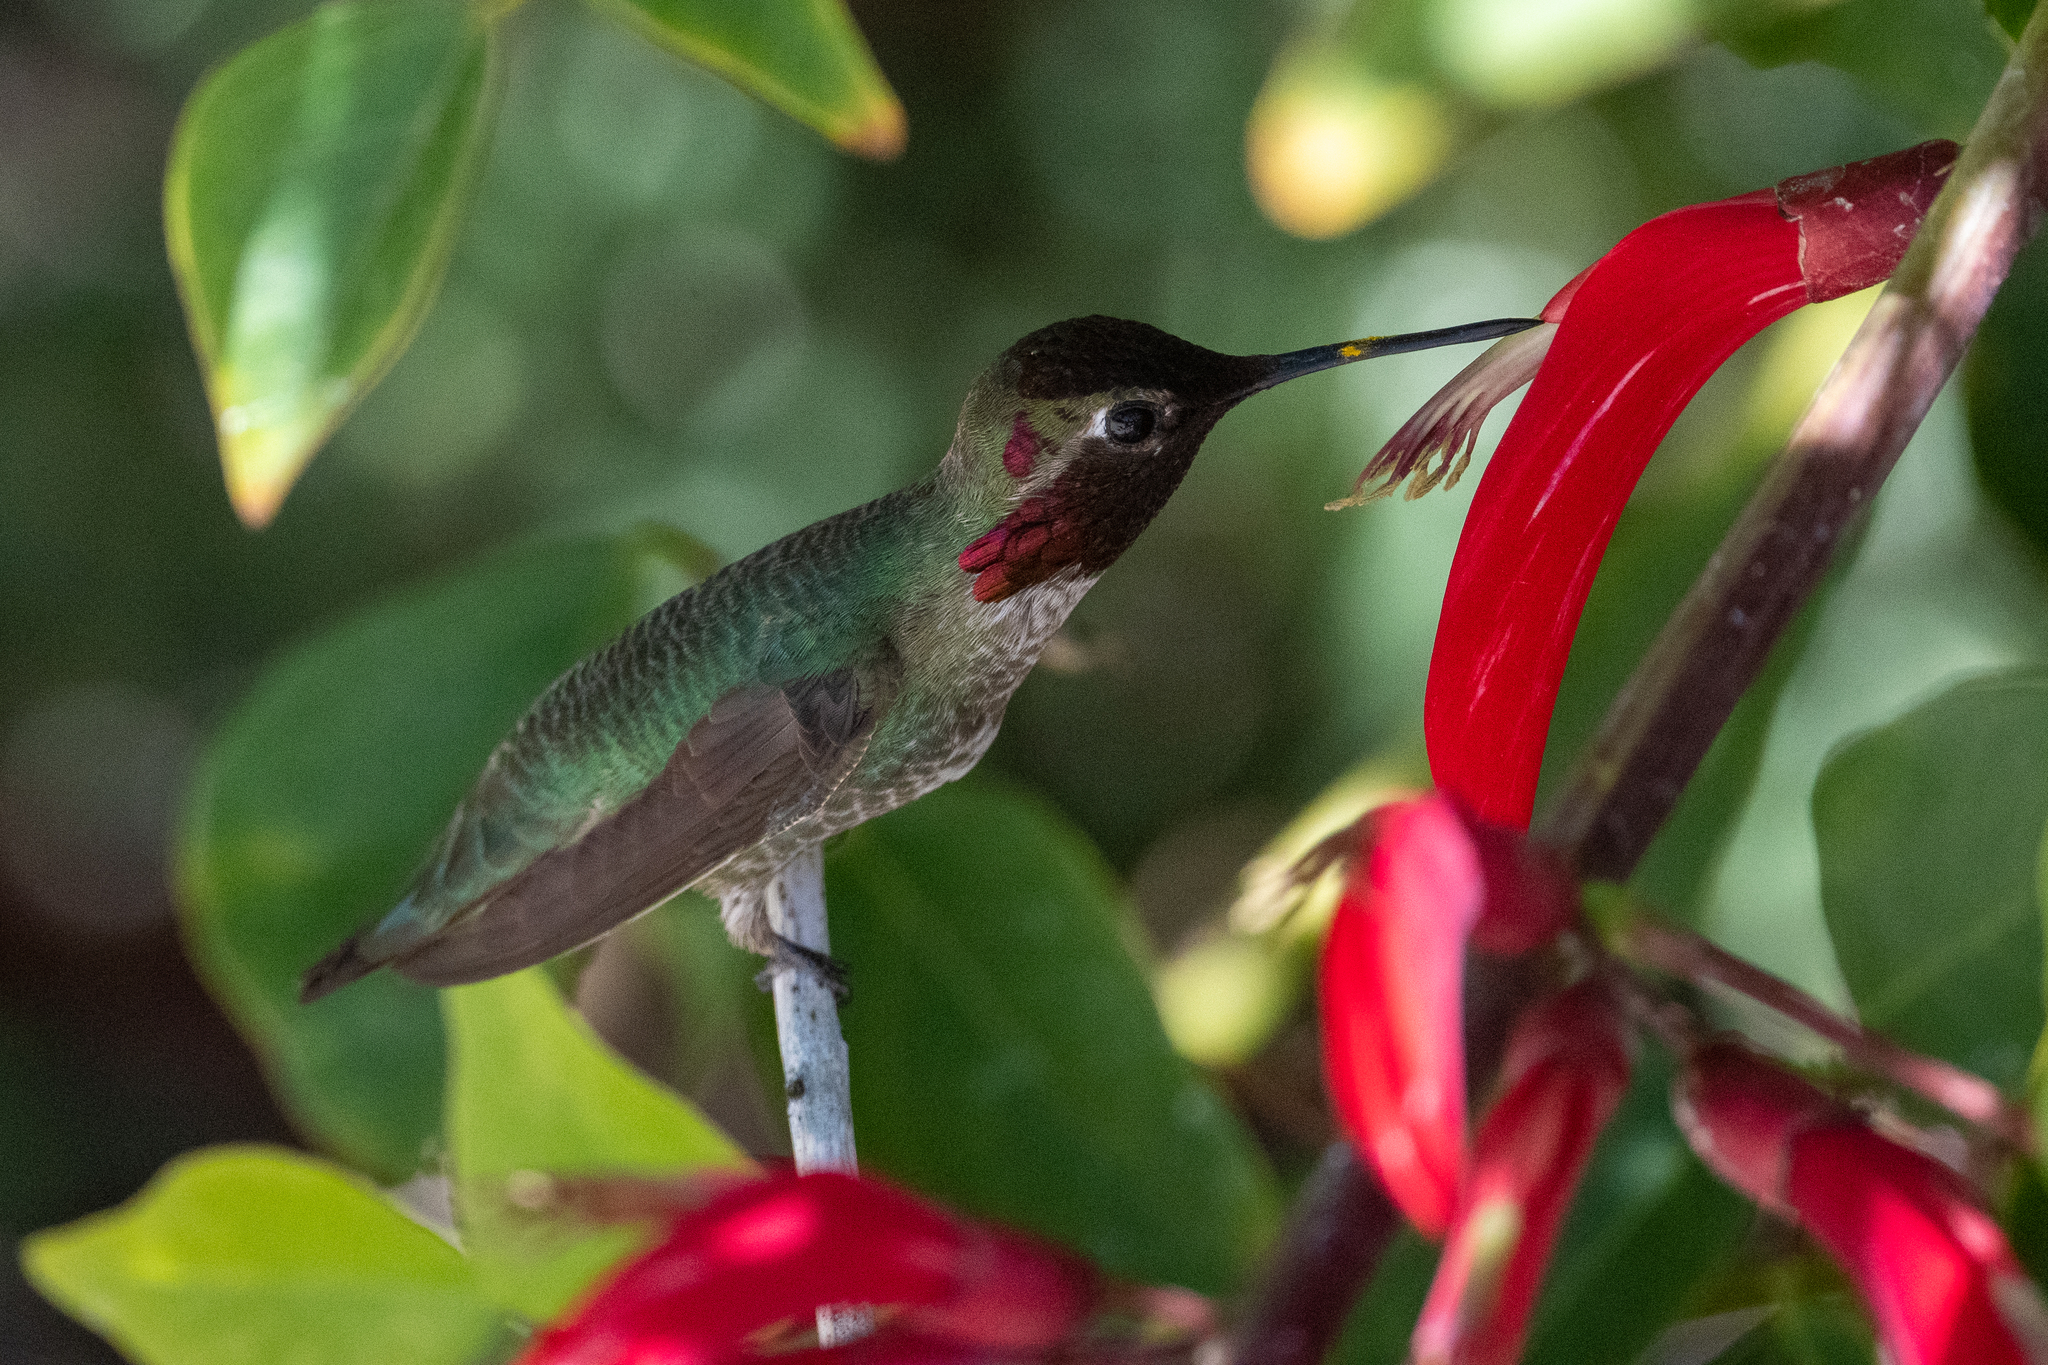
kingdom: Animalia
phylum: Chordata
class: Aves
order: Apodiformes
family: Trochilidae
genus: Calypte
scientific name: Calypte anna
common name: Anna's hummingbird
